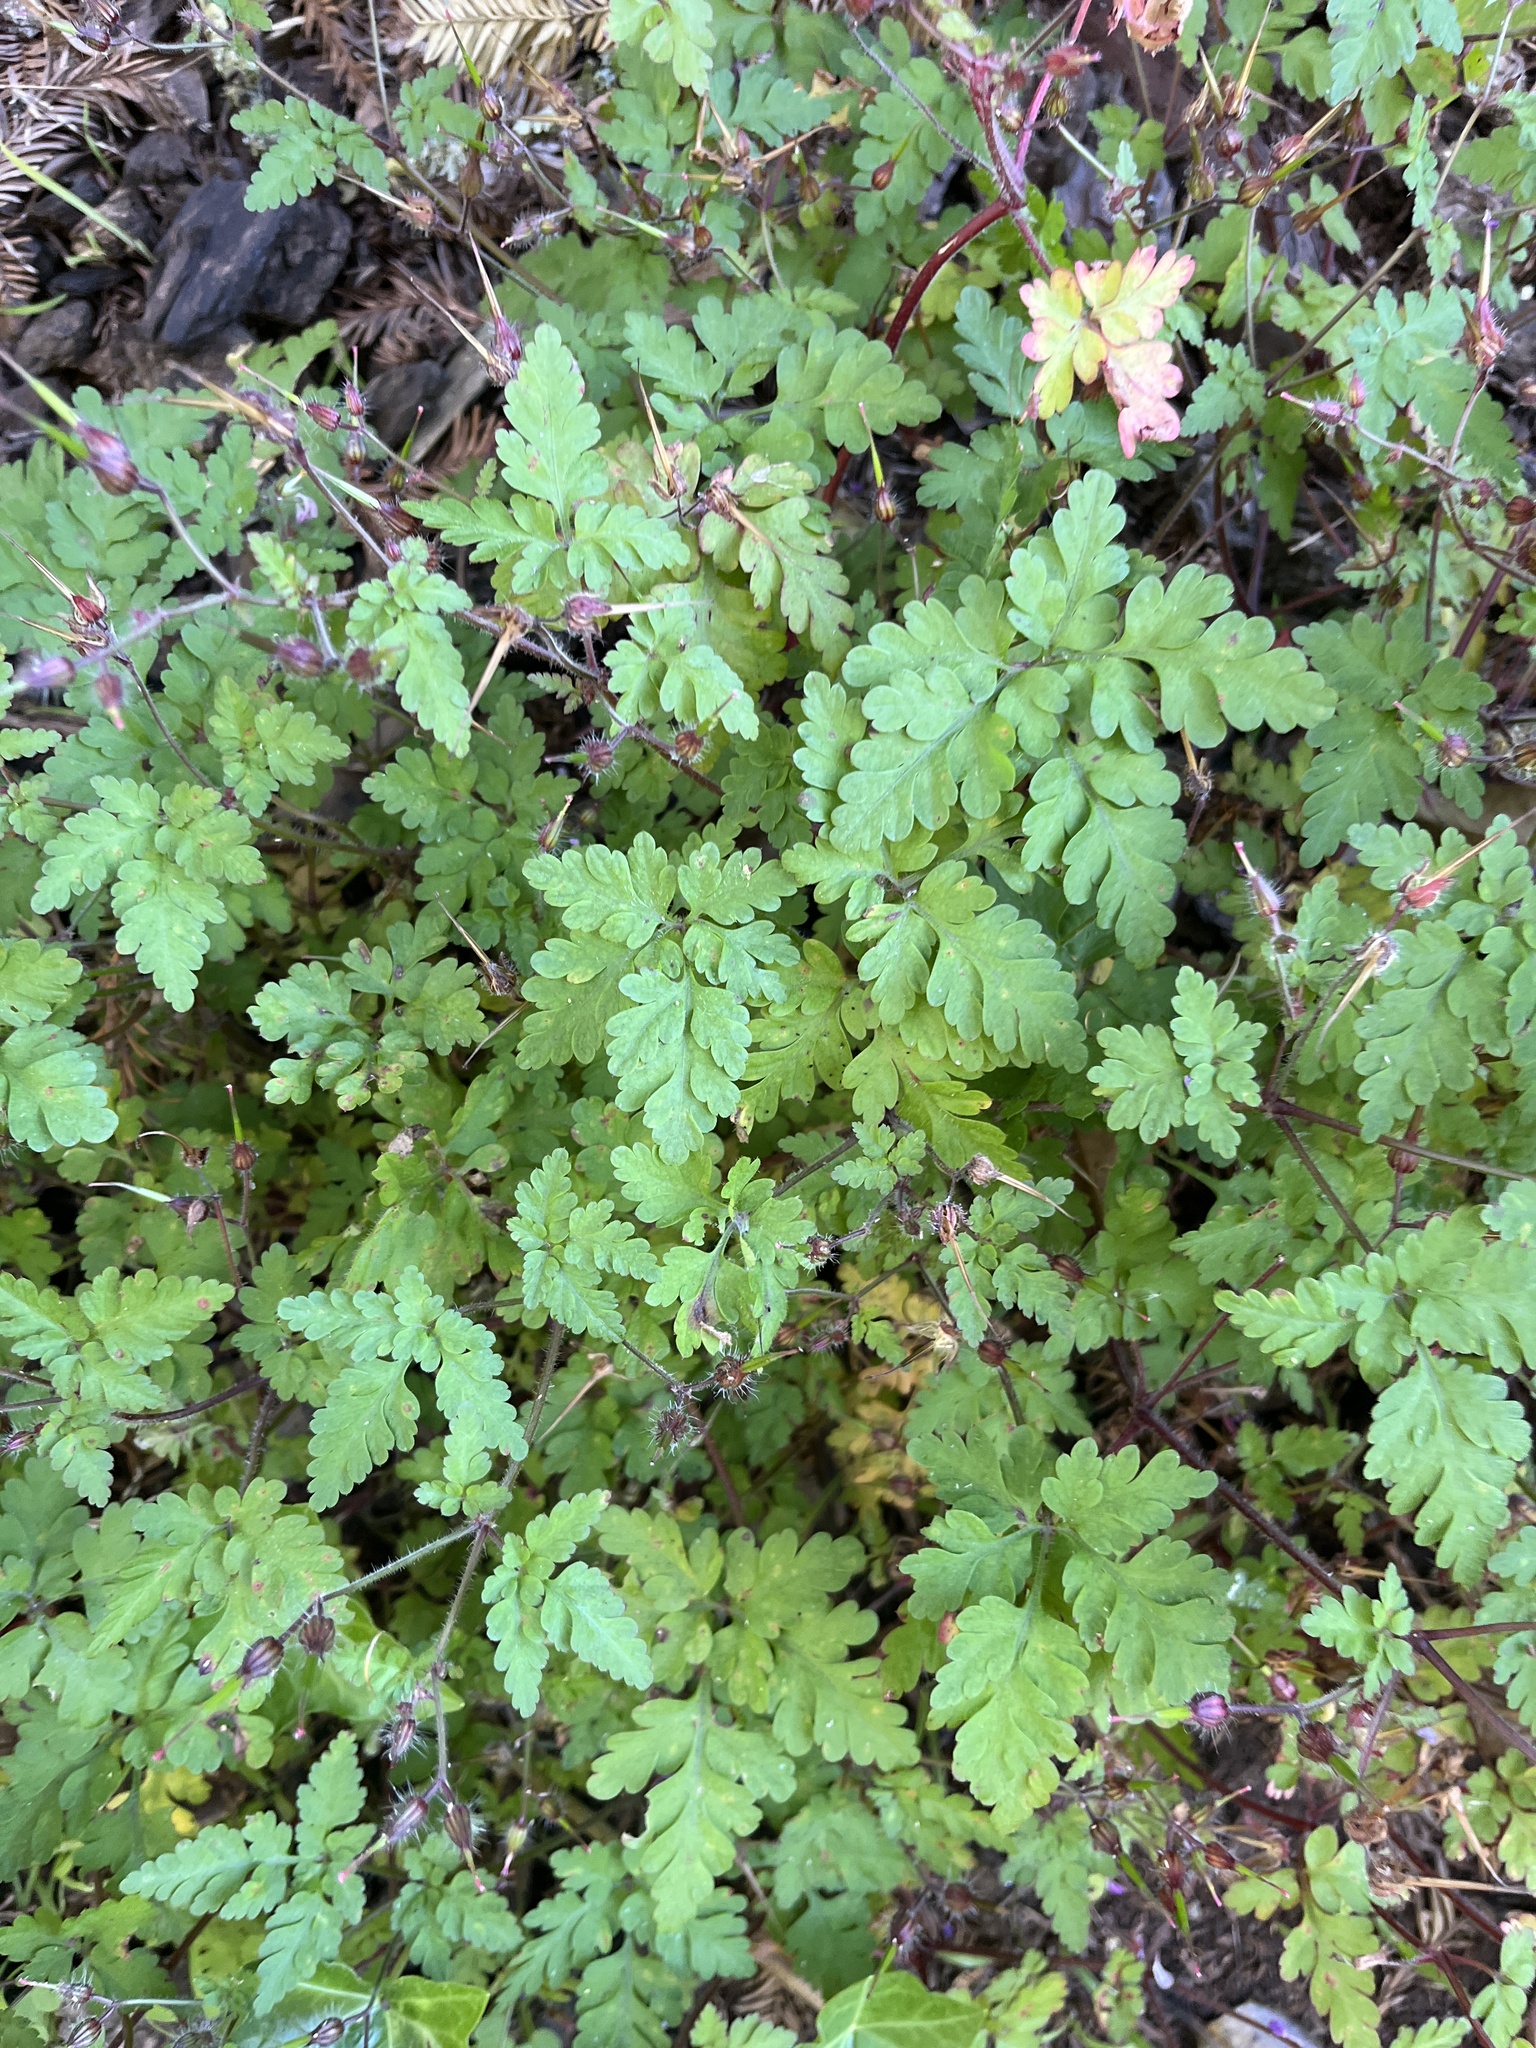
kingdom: Plantae
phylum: Tracheophyta
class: Magnoliopsida
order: Geraniales
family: Geraniaceae
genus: Geranium
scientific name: Geranium robertianum
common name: Herb-robert
